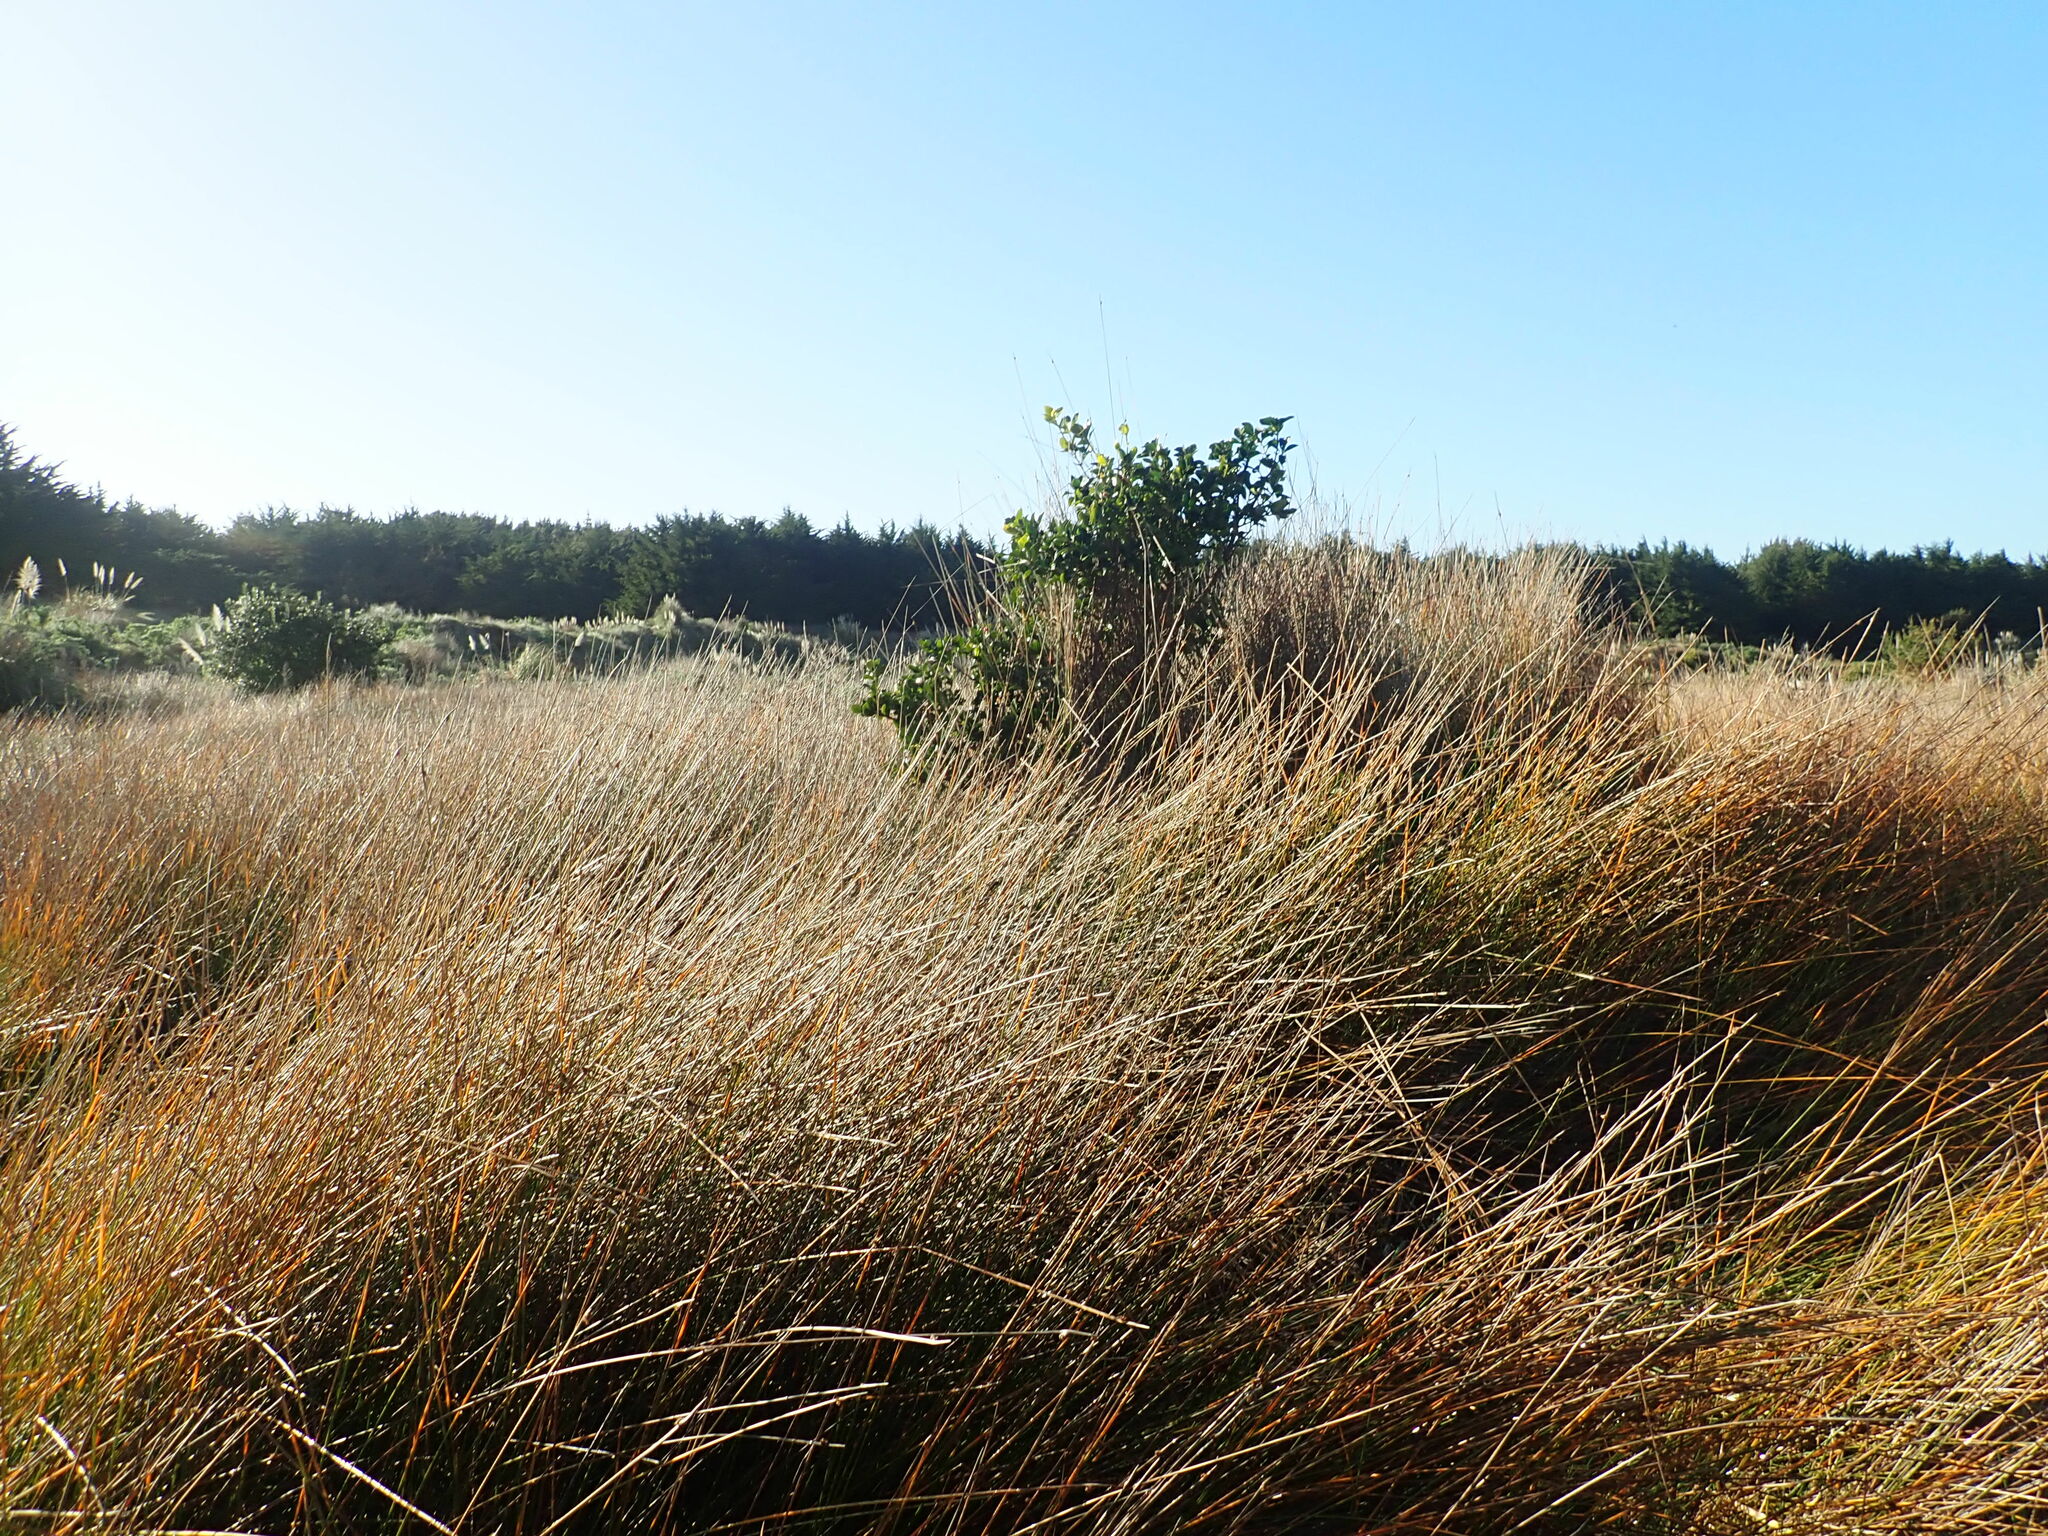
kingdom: Plantae
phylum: Tracheophyta
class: Magnoliopsida
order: Celastrales
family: Celastraceae
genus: Euonymus
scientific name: Euonymus japonicus
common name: Japanese spindletree
